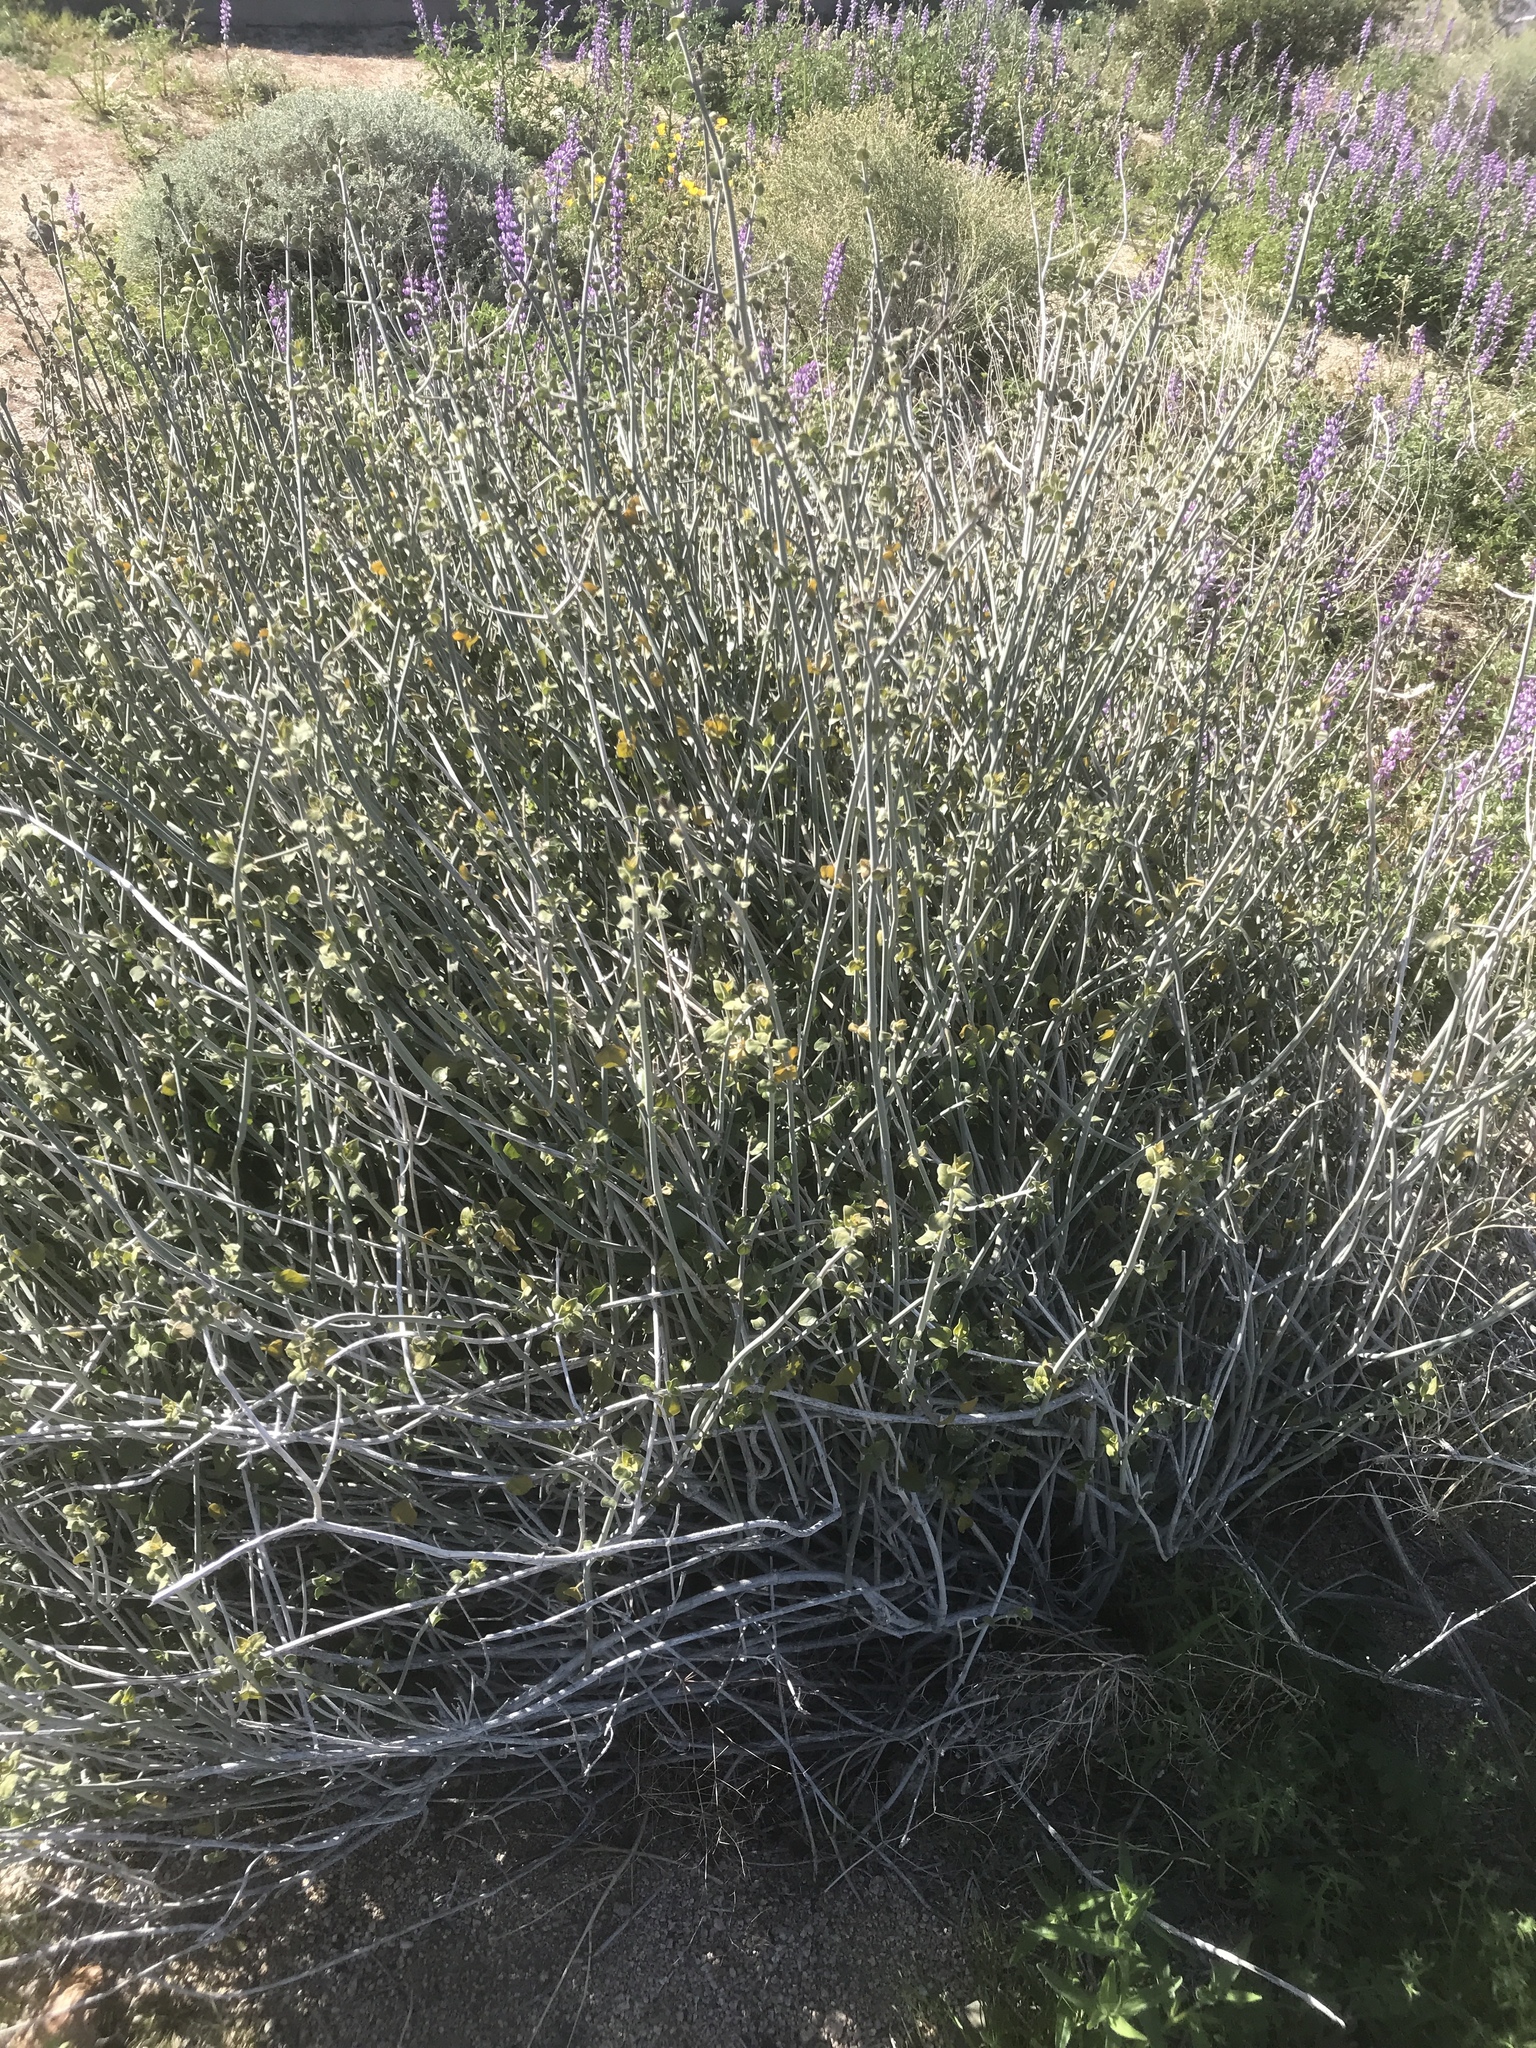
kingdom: Plantae
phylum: Tracheophyta
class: Magnoliopsida
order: Lamiales
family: Acanthaceae
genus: Justicia
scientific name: Justicia californica
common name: Chuparosa-honeysuckle
